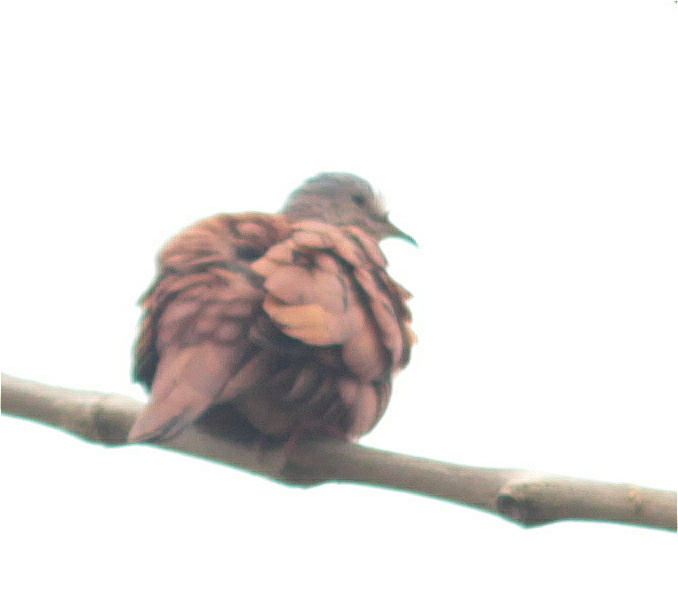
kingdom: Animalia
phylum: Chordata
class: Aves
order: Columbiformes
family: Columbidae
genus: Columbina
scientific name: Columbina talpacoti
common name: Ruddy ground dove
